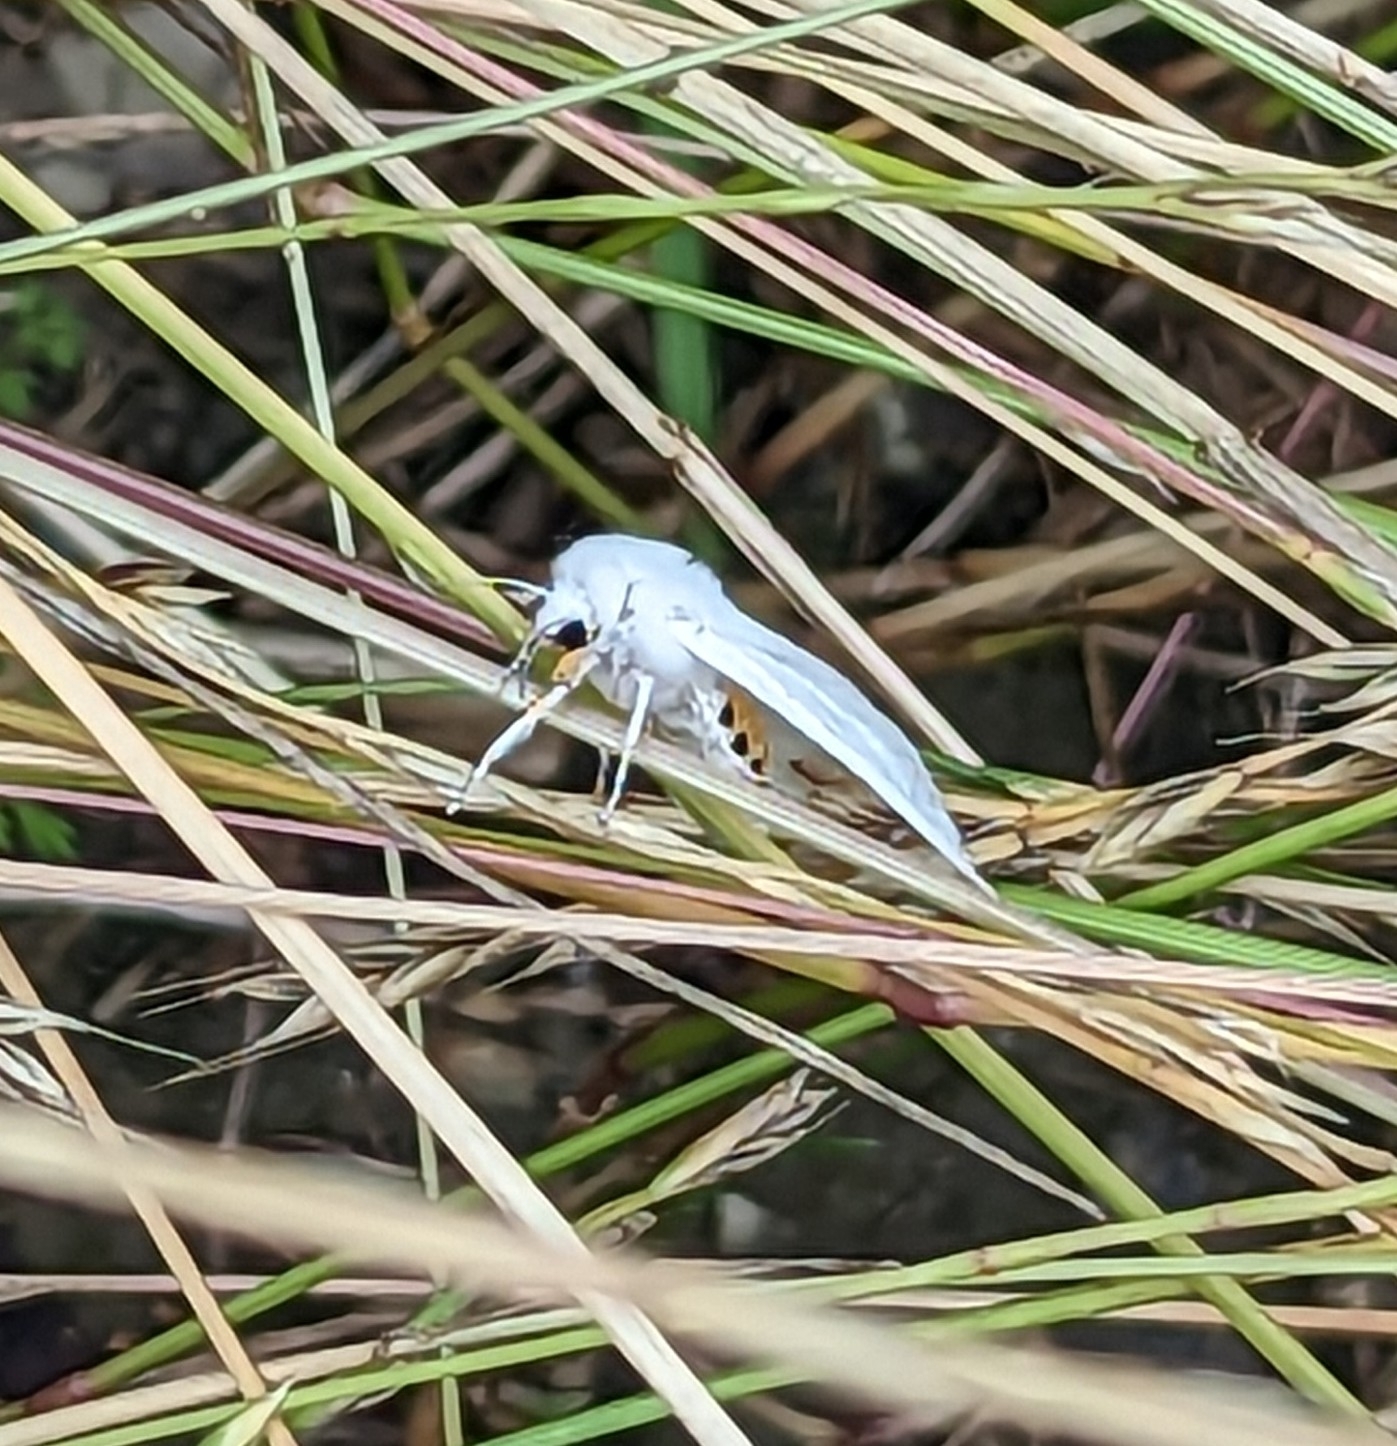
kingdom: Animalia
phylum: Arthropoda
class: Insecta
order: Lepidoptera
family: Erebidae
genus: Spilosoma
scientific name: Spilosoma virginica
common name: Virginia tiger moth
